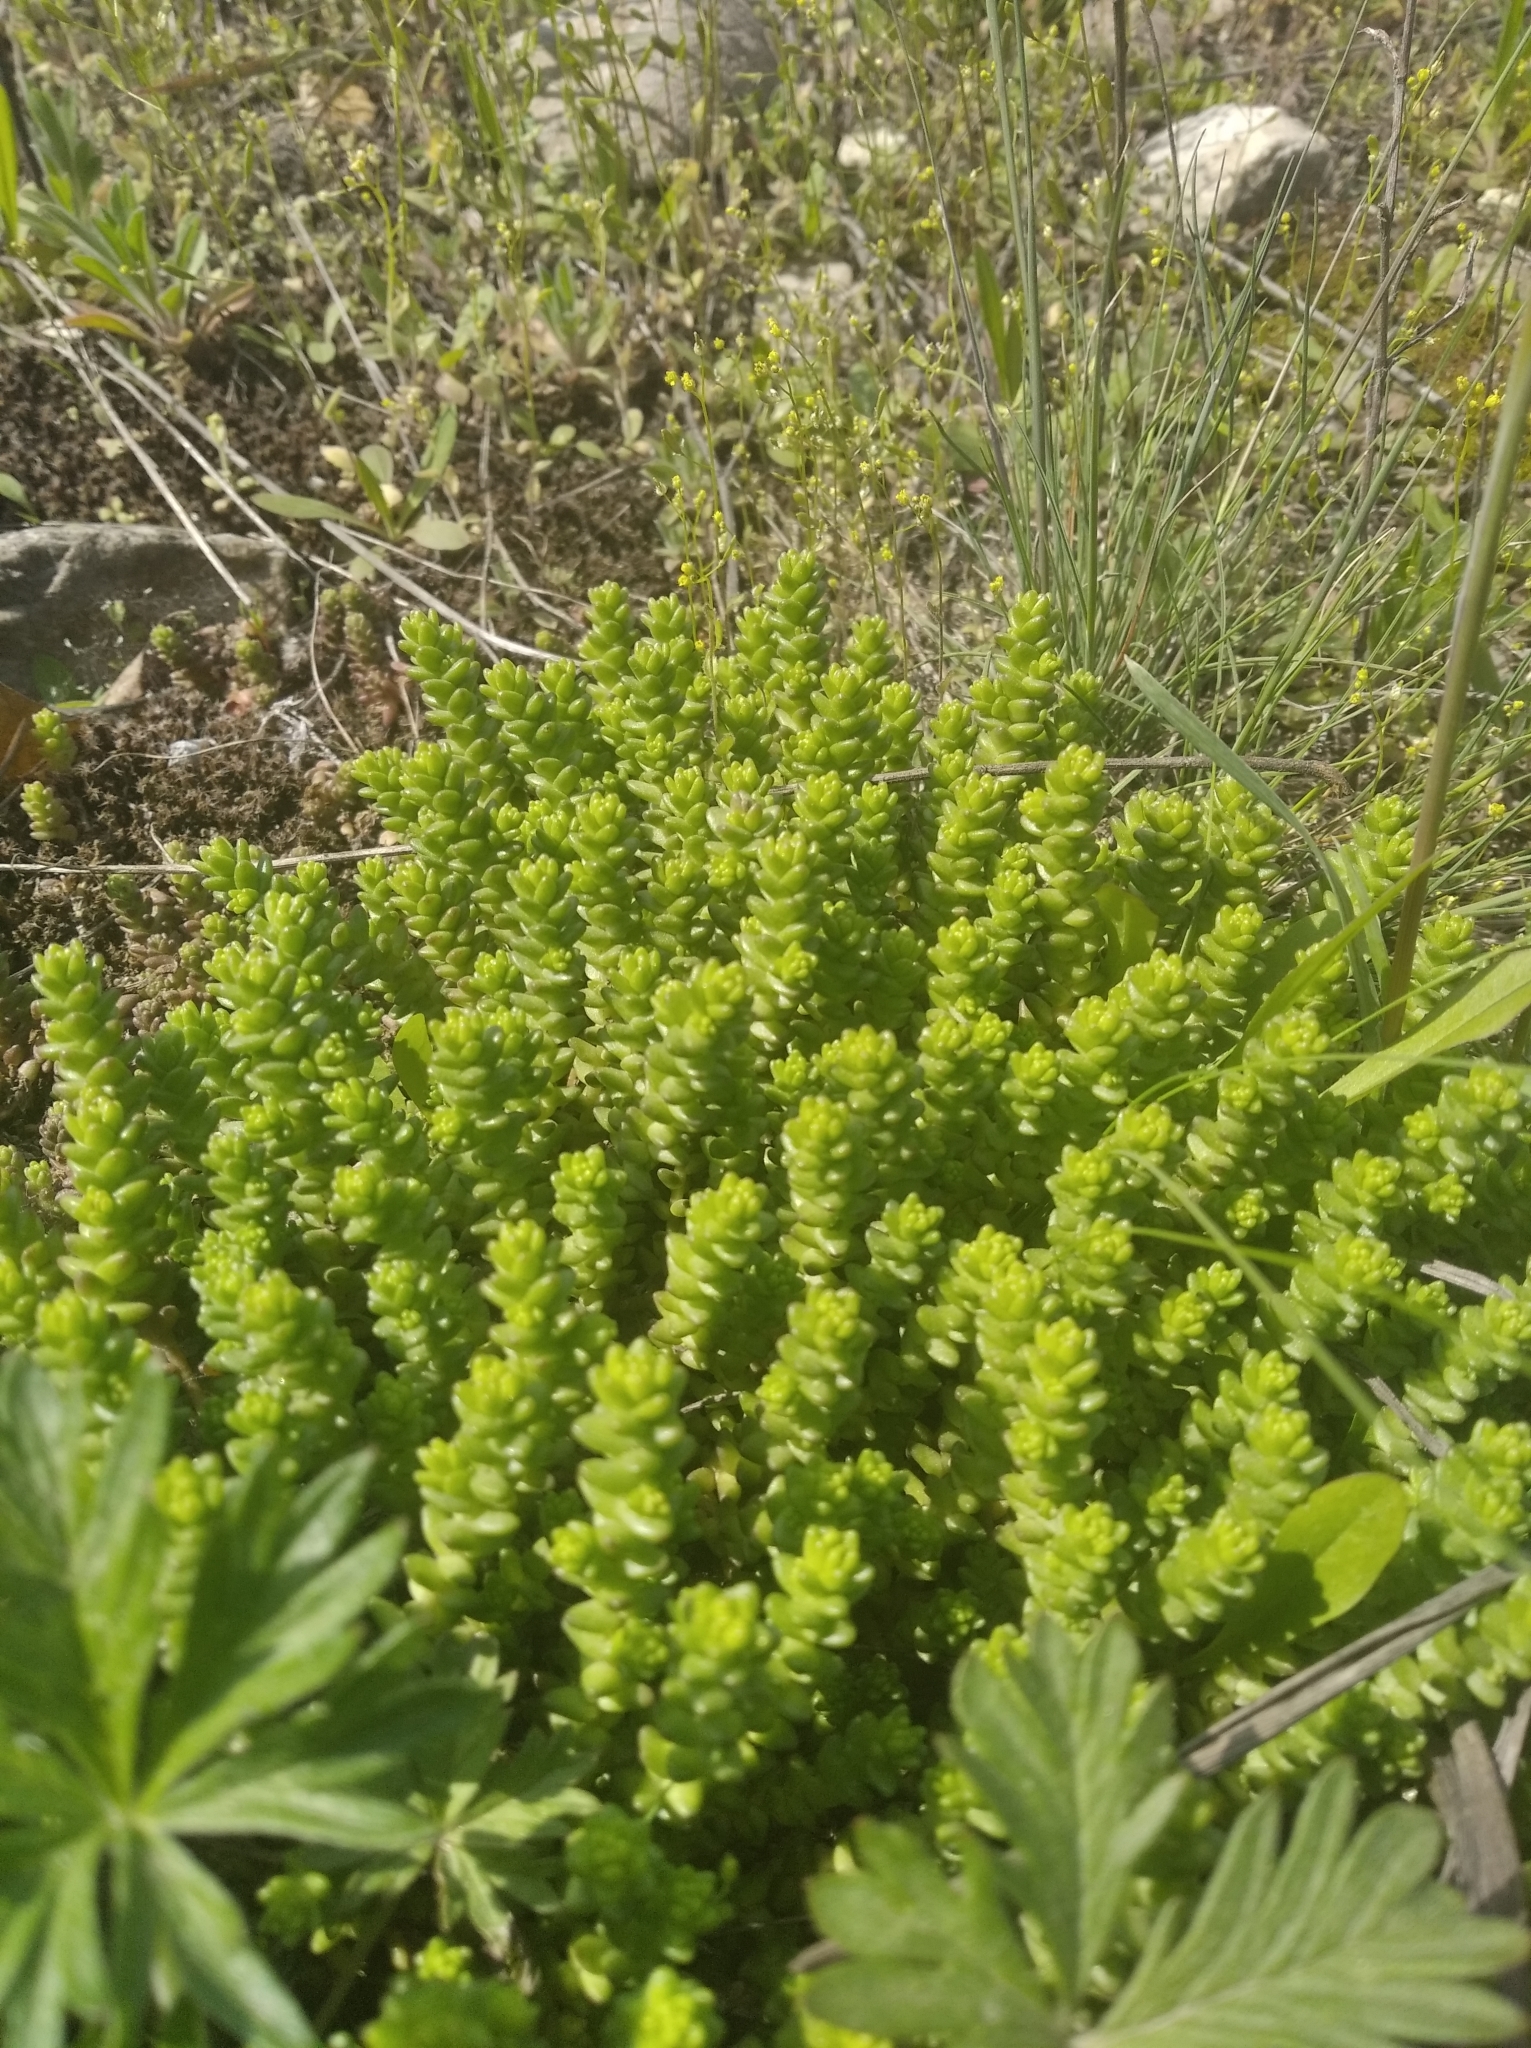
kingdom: Plantae
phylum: Tracheophyta
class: Magnoliopsida
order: Saxifragales
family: Crassulaceae
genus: Sedum
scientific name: Sedum acre
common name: Biting stonecrop
